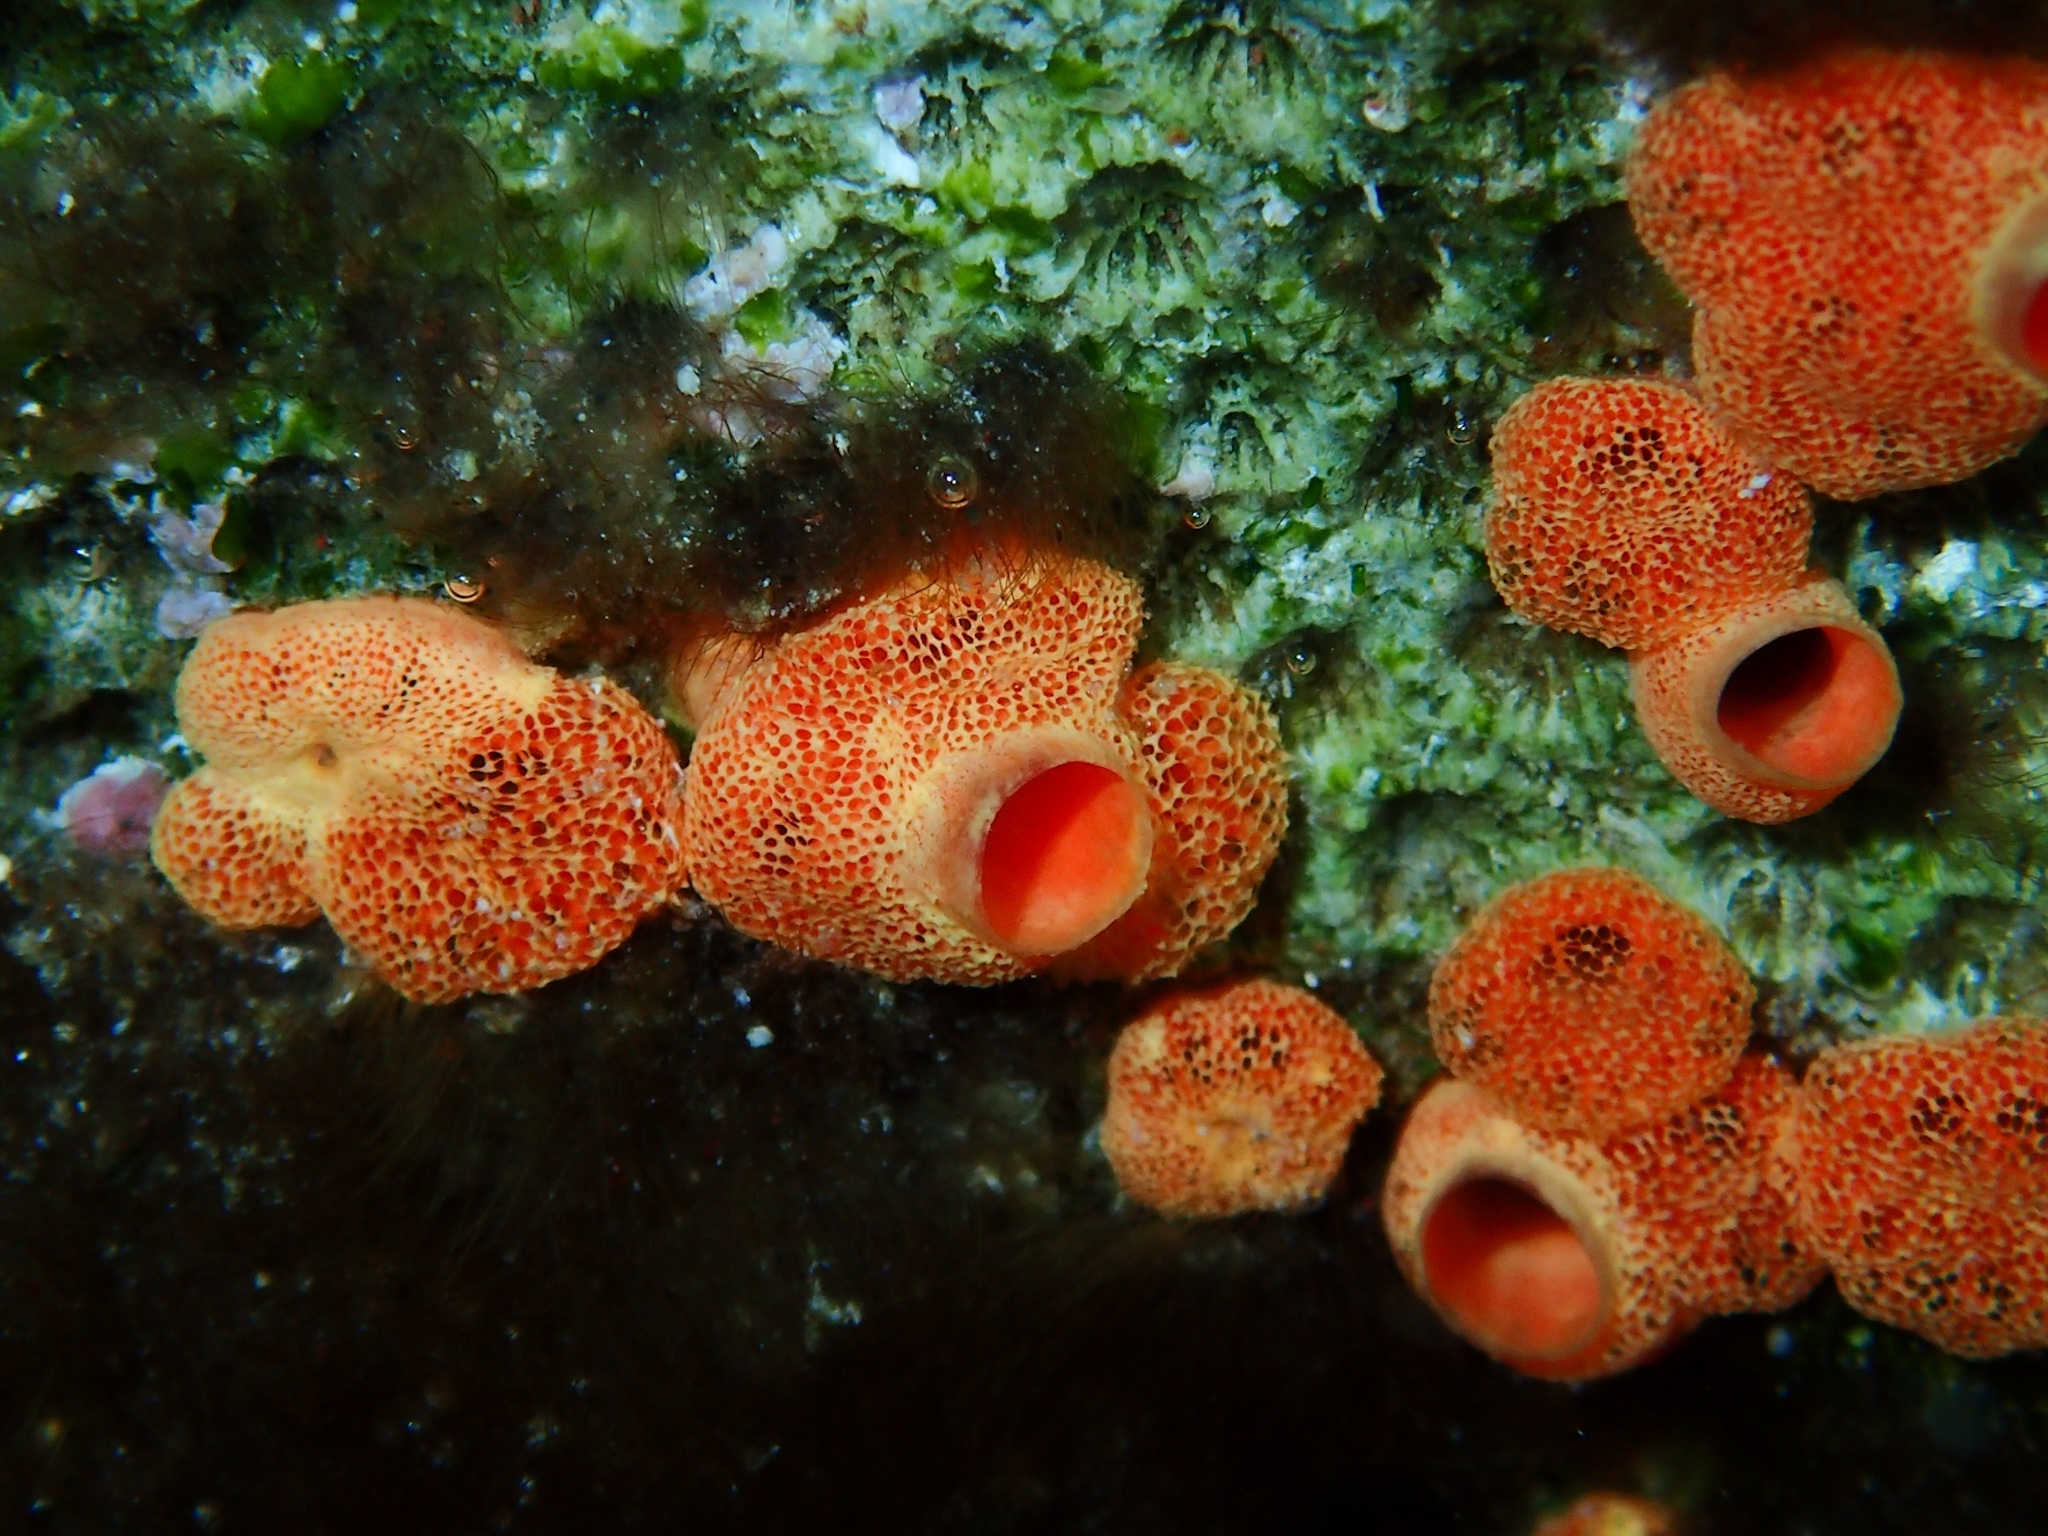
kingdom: Animalia
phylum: Porifera
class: Demospongiae
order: Clionaida
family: Clionaidae
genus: Cliothosa
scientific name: Cliothosa delitrix
